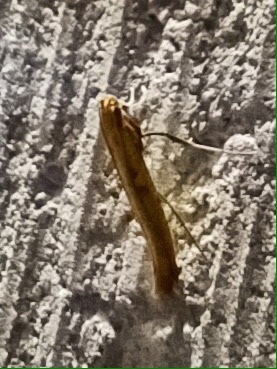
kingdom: Animalia
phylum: Arthropoda
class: Insecta
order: Lepidoptera
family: Gracillariidae
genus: Caloptilia
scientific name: Caloptilia populetorum
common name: Clouded slender
